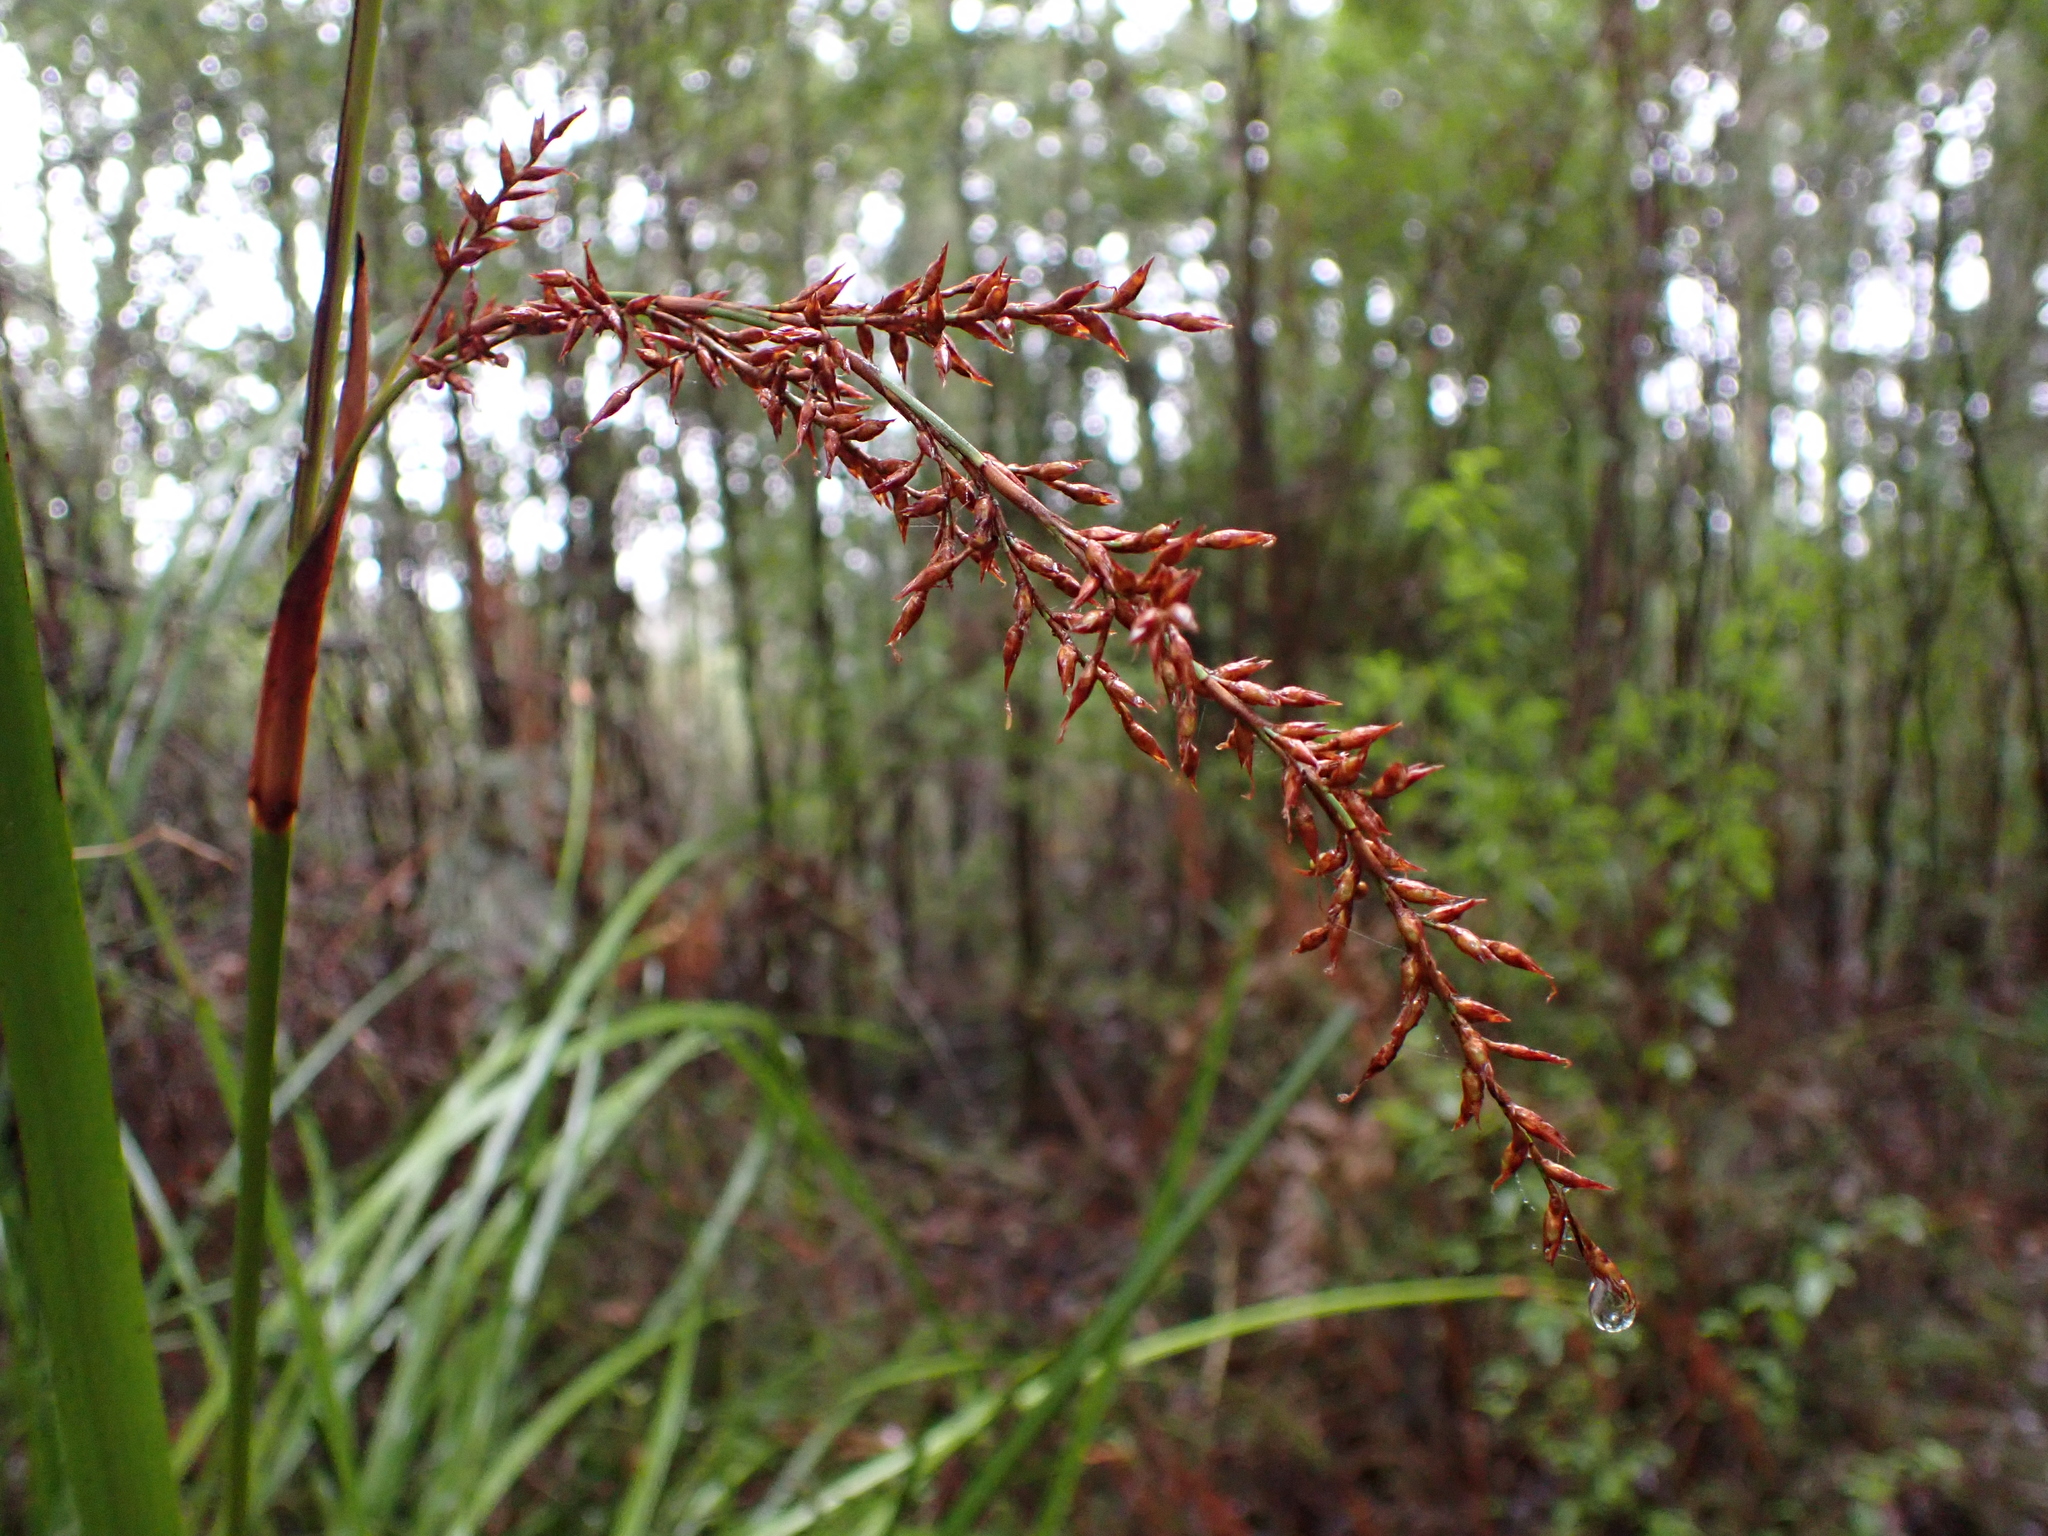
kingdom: Plantae
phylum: Tracheophyta
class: Liliopsida
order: Poales
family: Cyperaceae
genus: Lepidosperma
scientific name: Lepidosperma elatius
